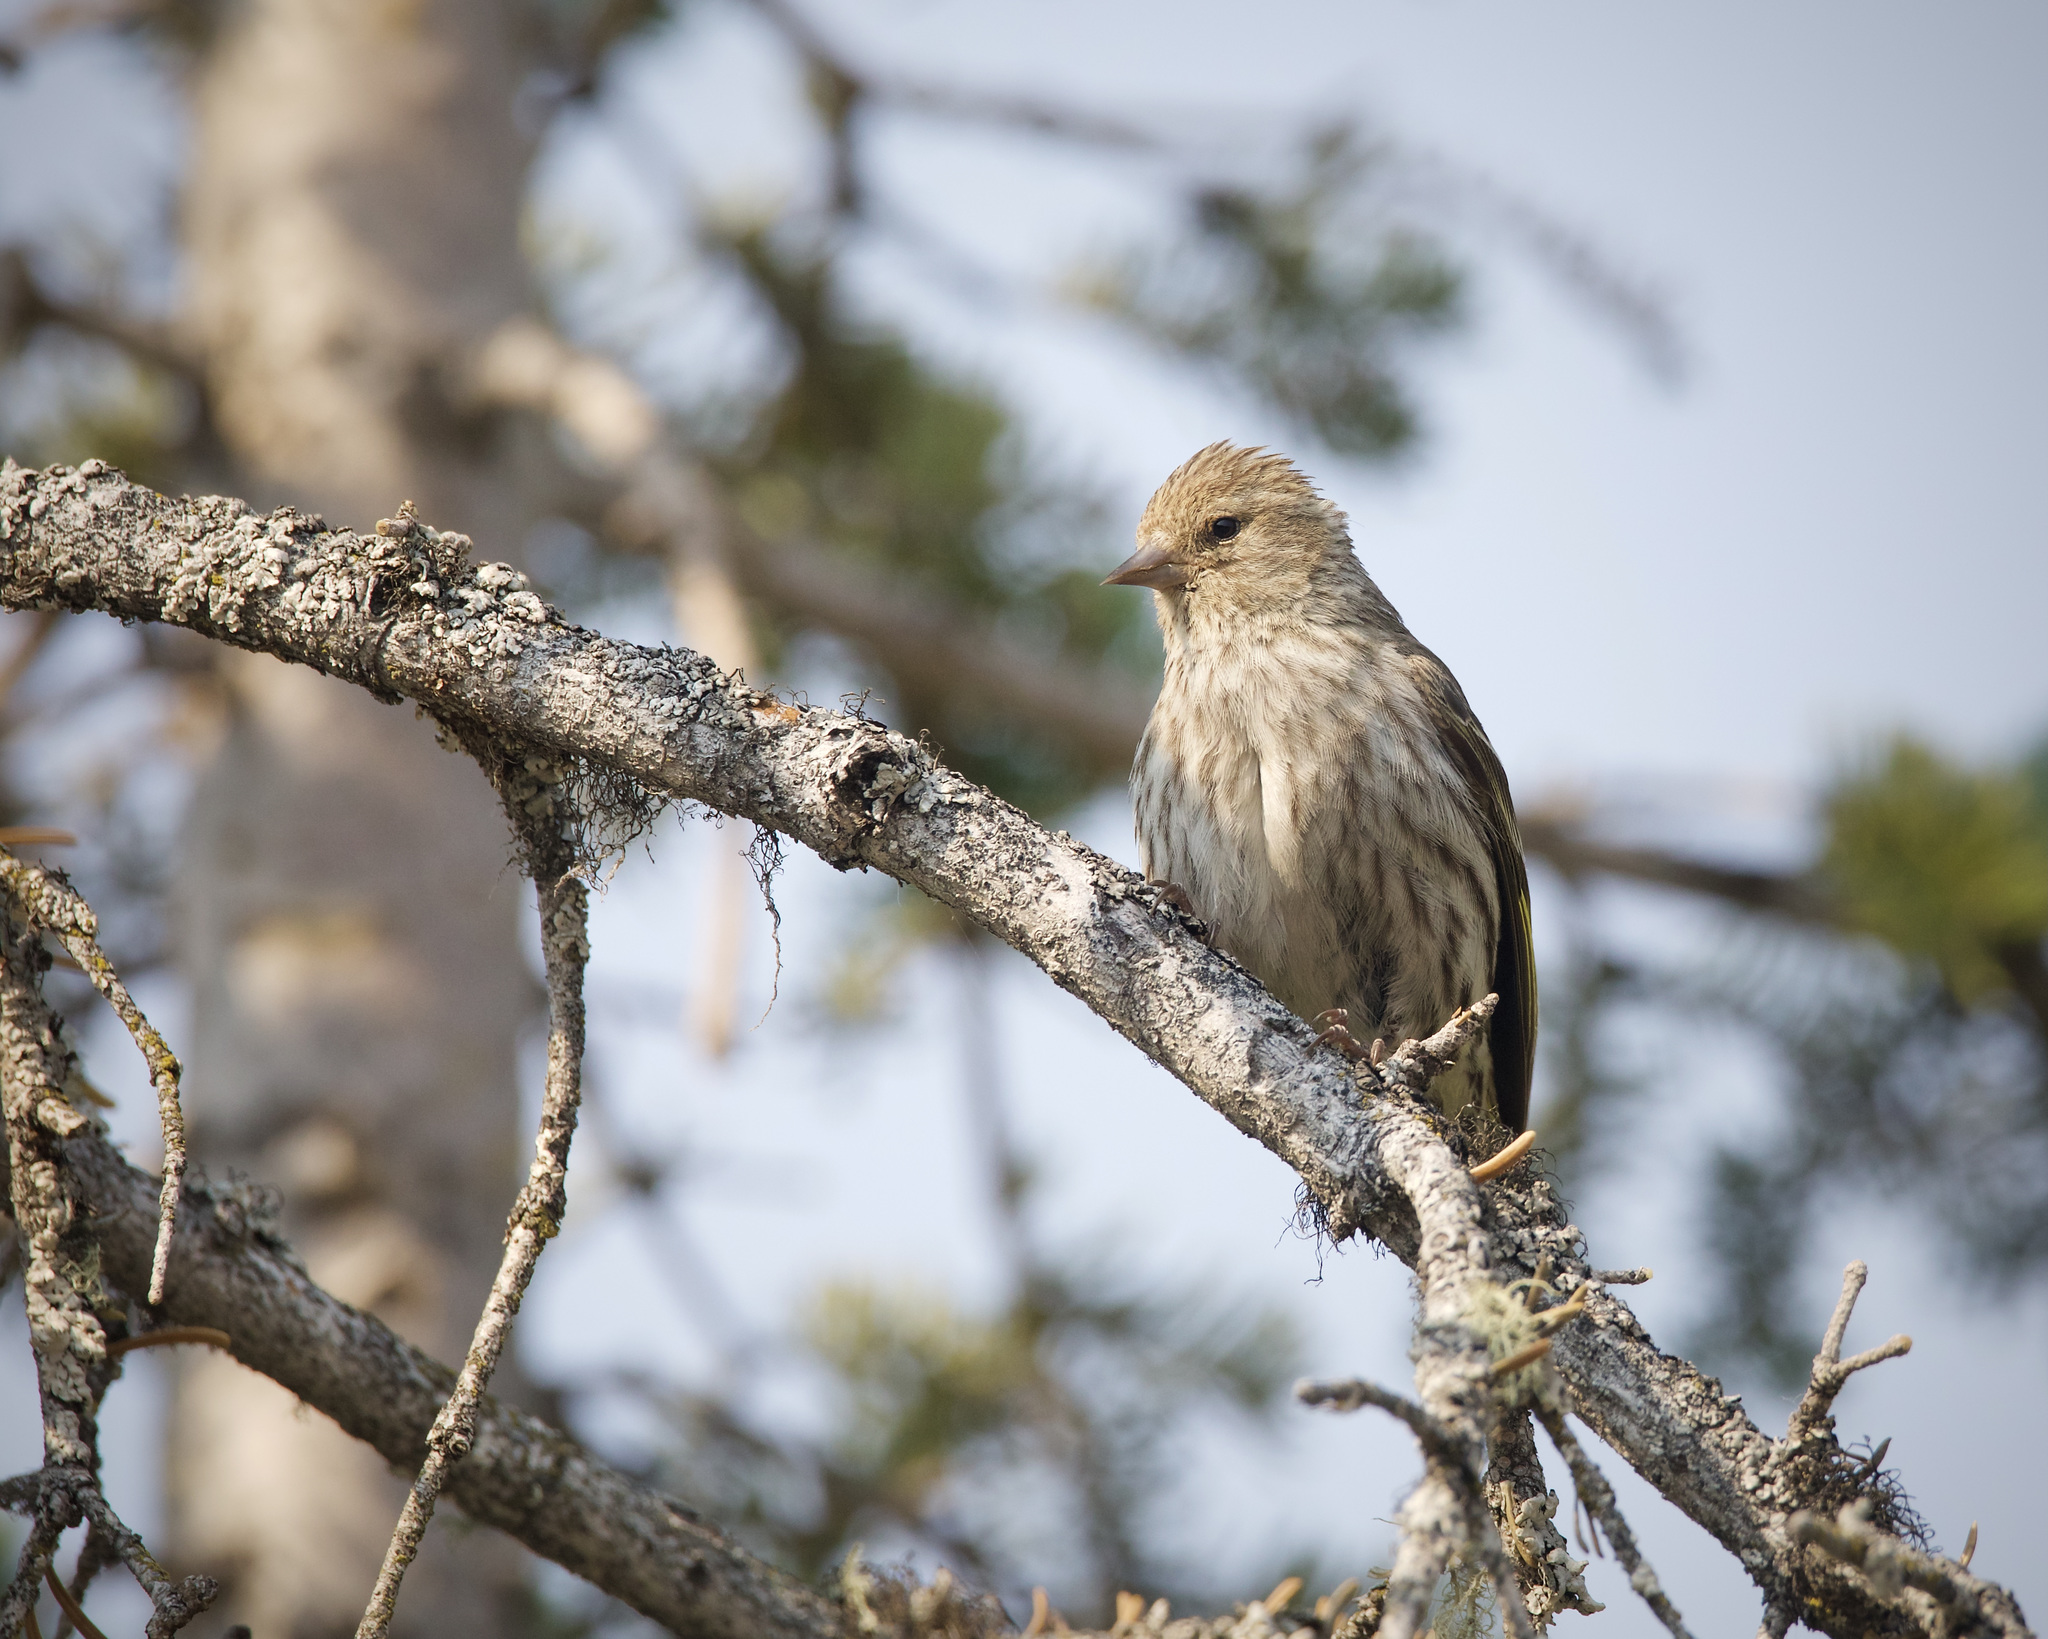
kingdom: Animalia
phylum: Chordata
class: Aves
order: Passeriformes
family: Fringillidae
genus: Spinus
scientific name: Spinus pinus
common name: Pine siskin
